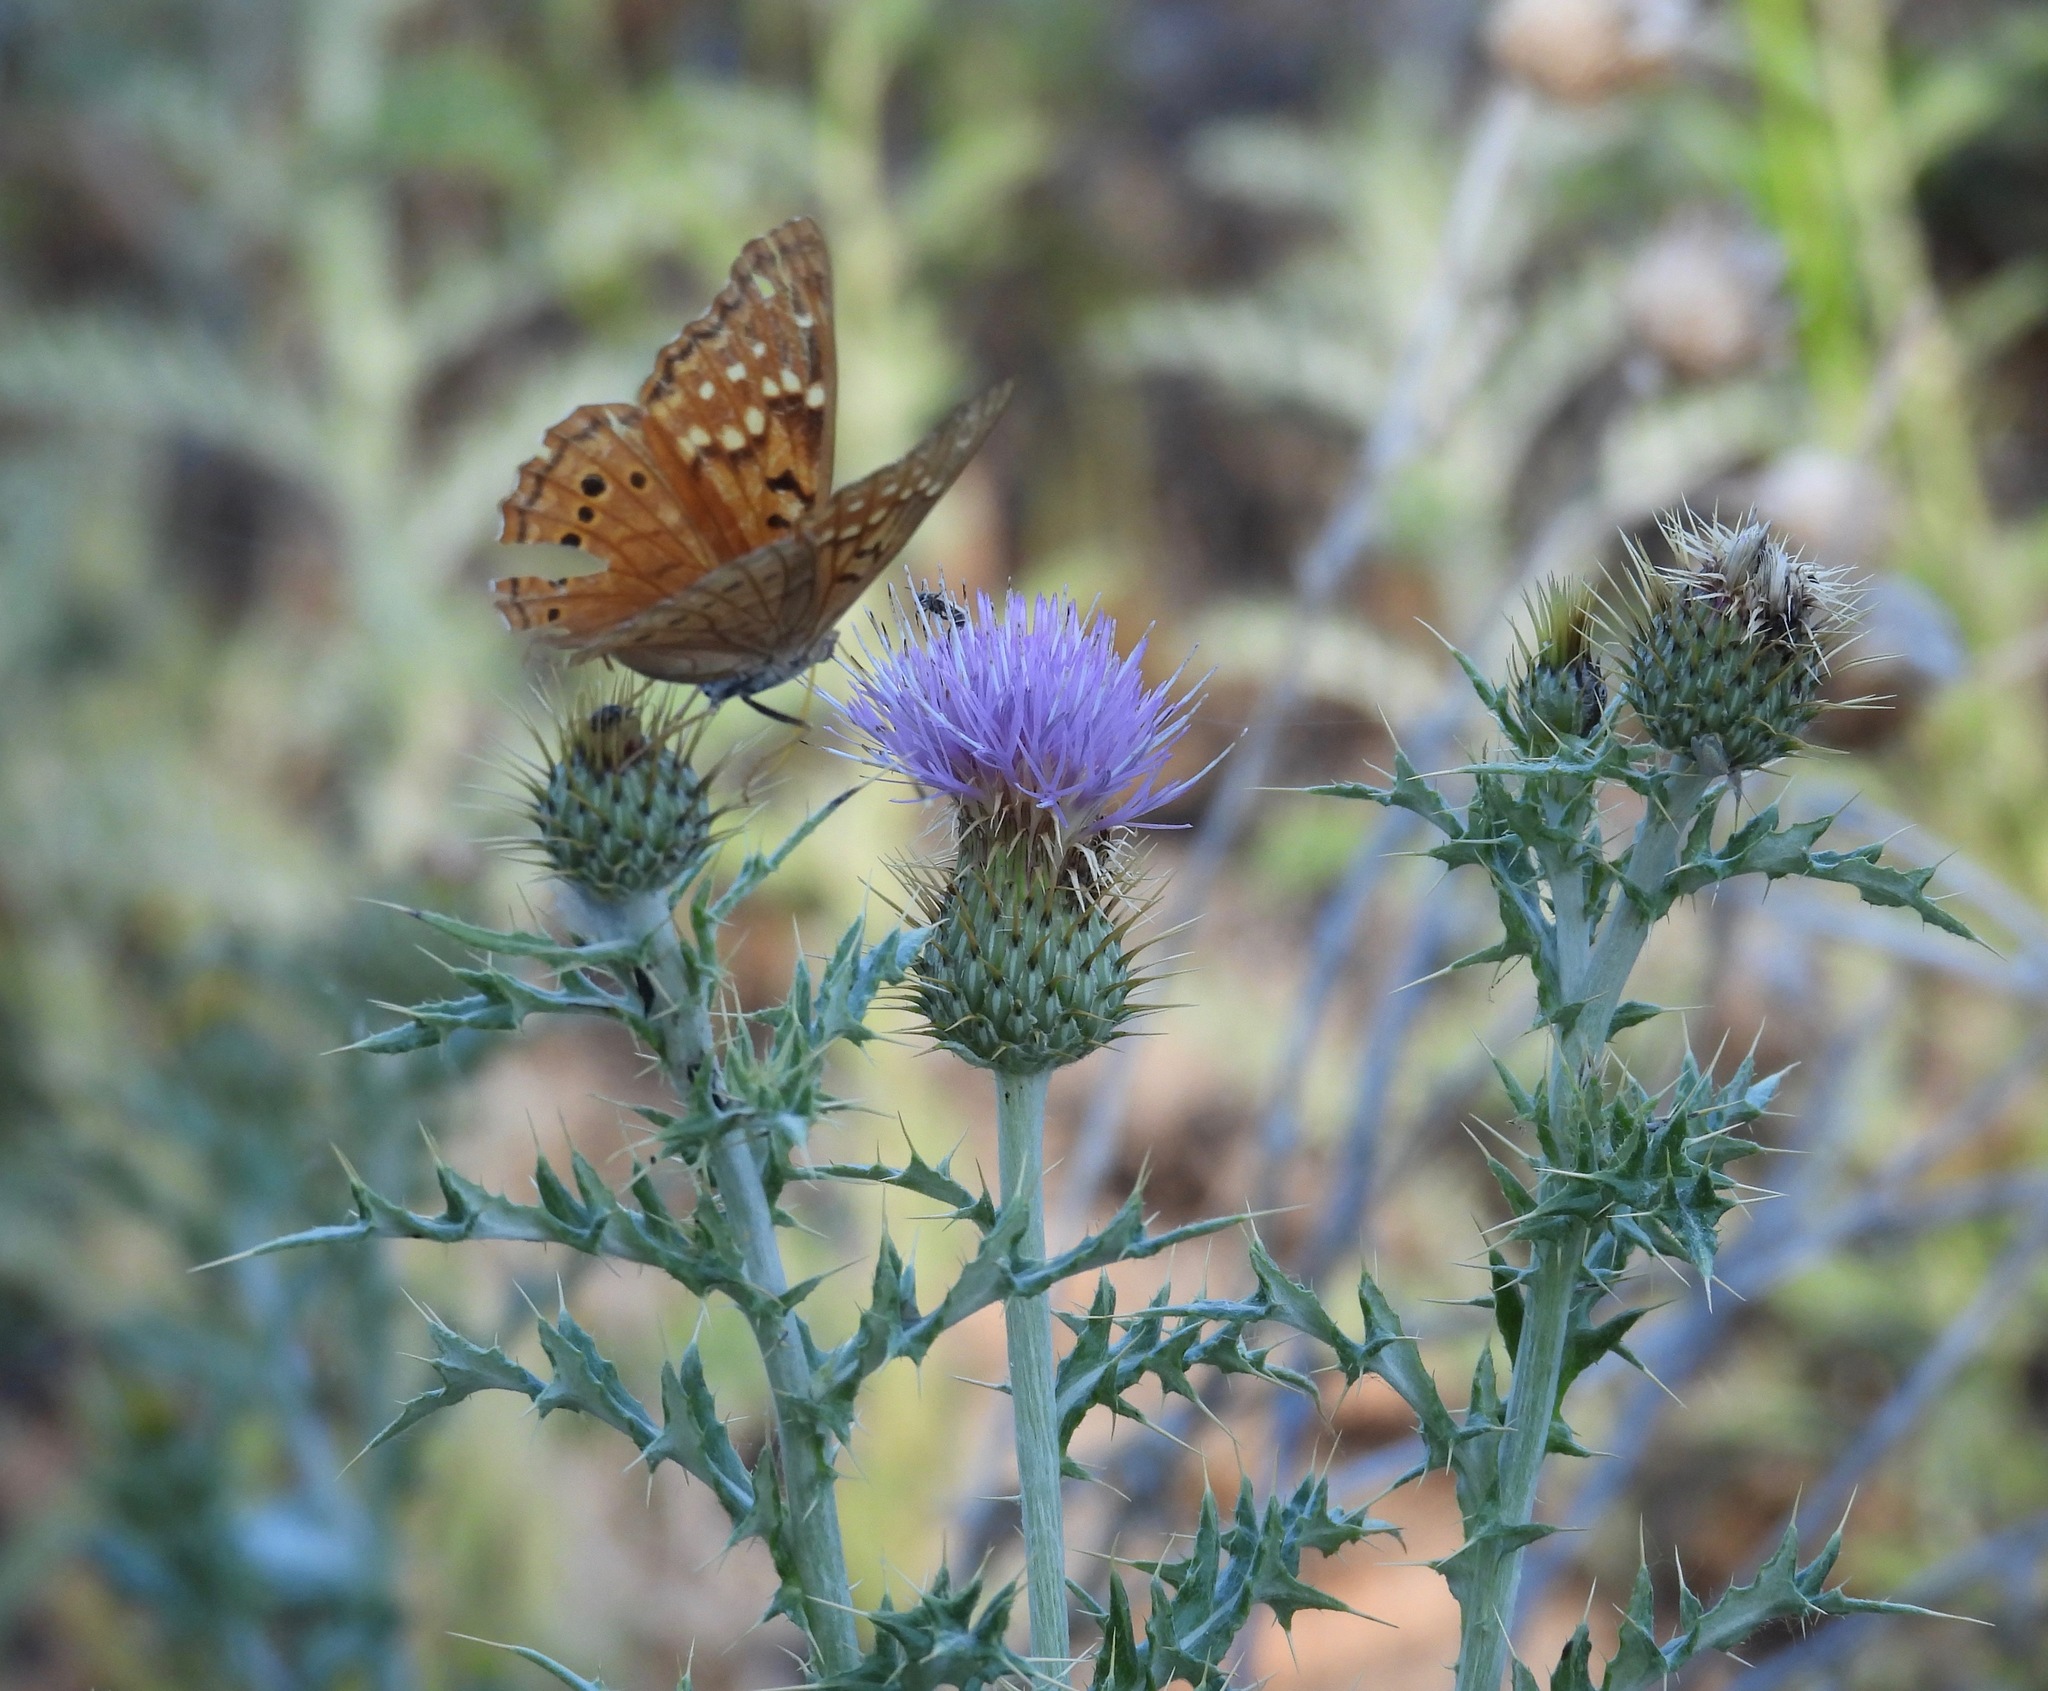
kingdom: Animalia
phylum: Arthropoda
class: Insecta
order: Lepidoptera
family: Nymphalidae
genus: Asterocampa
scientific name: Asterocampa clyton
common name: Tawny emperor
